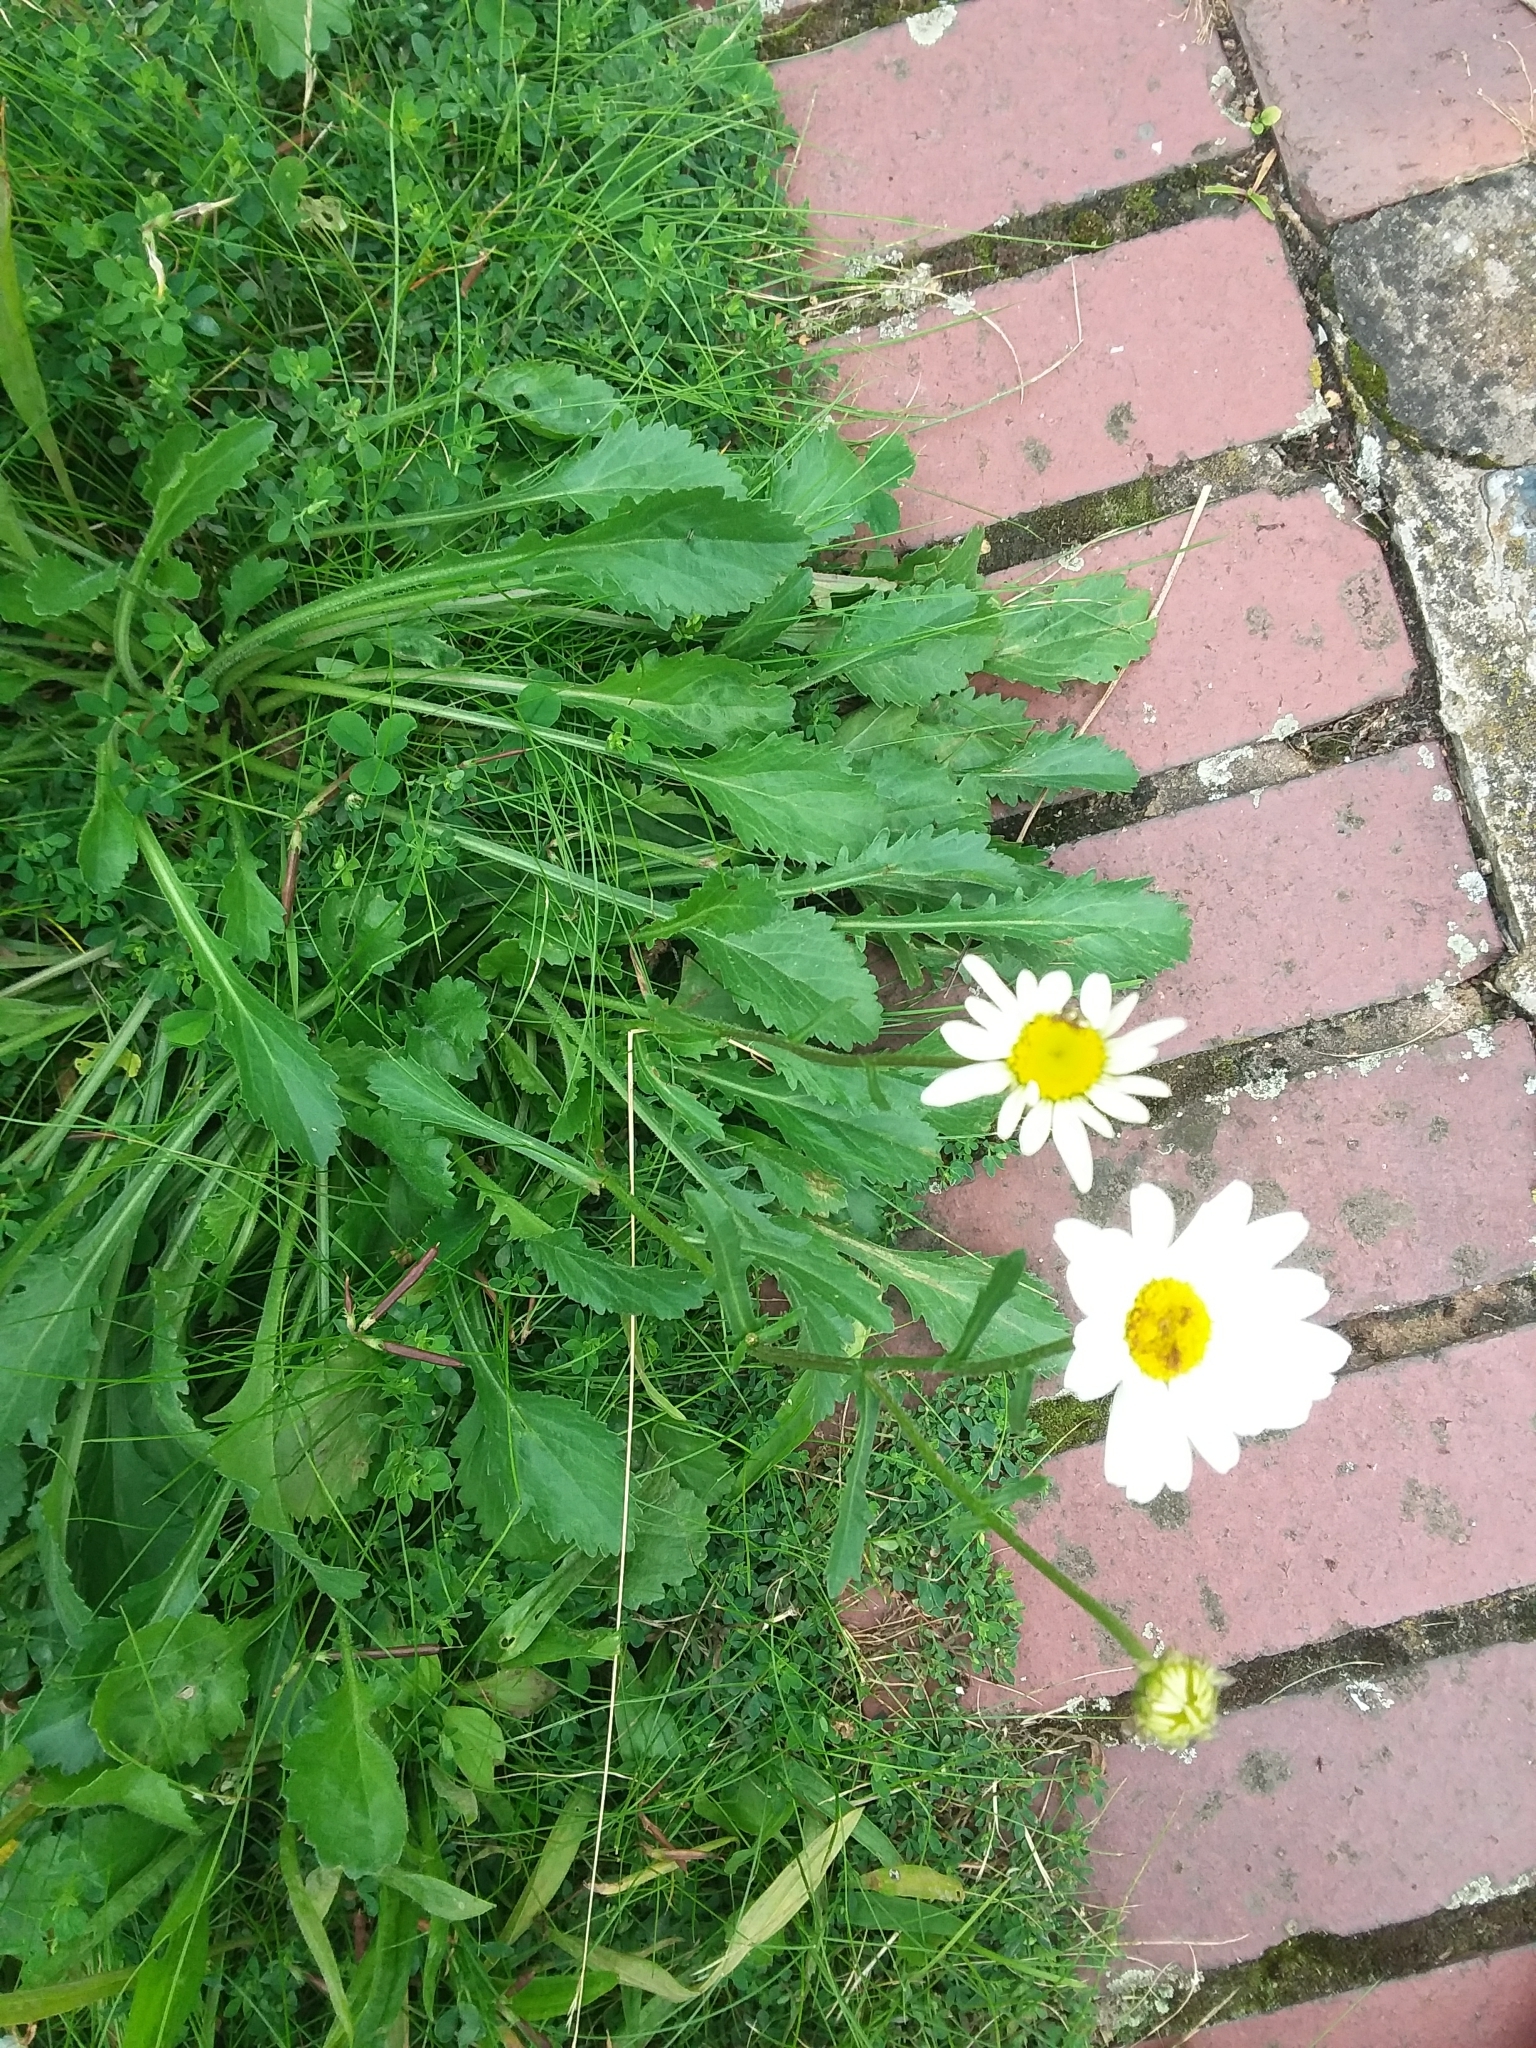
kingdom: Plantae
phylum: Tracheophyta
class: Magnoliopsida
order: Asterales
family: Asteraceae
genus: Leucanthemum
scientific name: Leucanthemum vulgare
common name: Oxeye daisy
